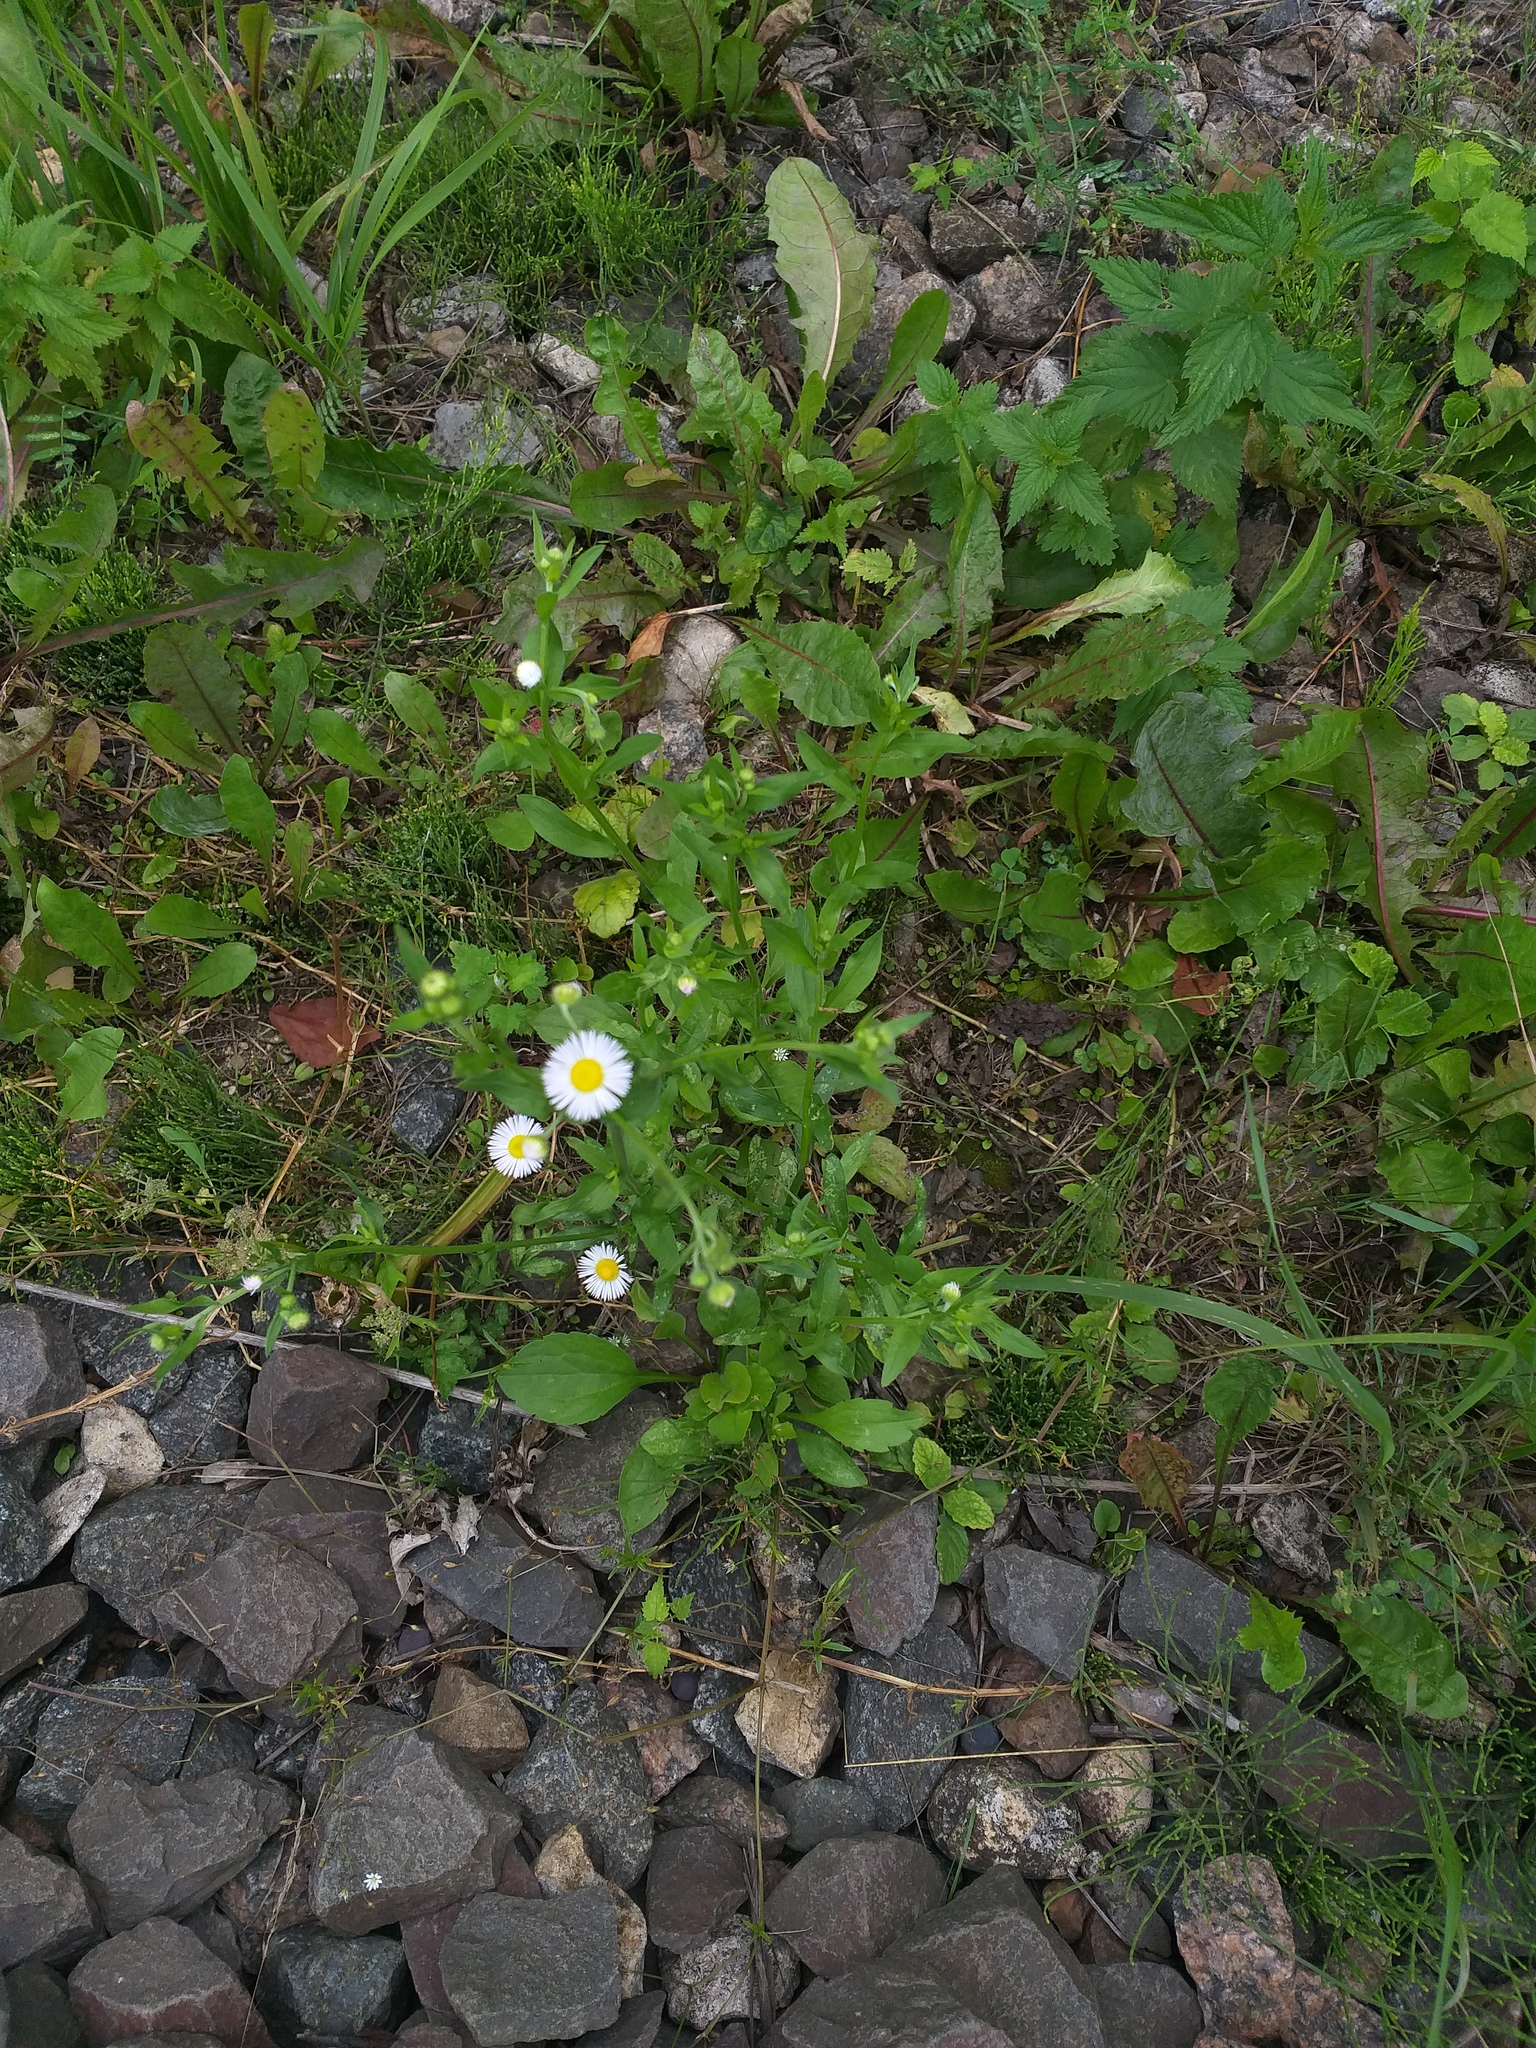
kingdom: Plantae
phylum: Tracheophyta
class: Magnoliopsida
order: Asterales
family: Asteraceae
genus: Erigeron
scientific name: Erigeron annuus
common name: Tall fleabane
